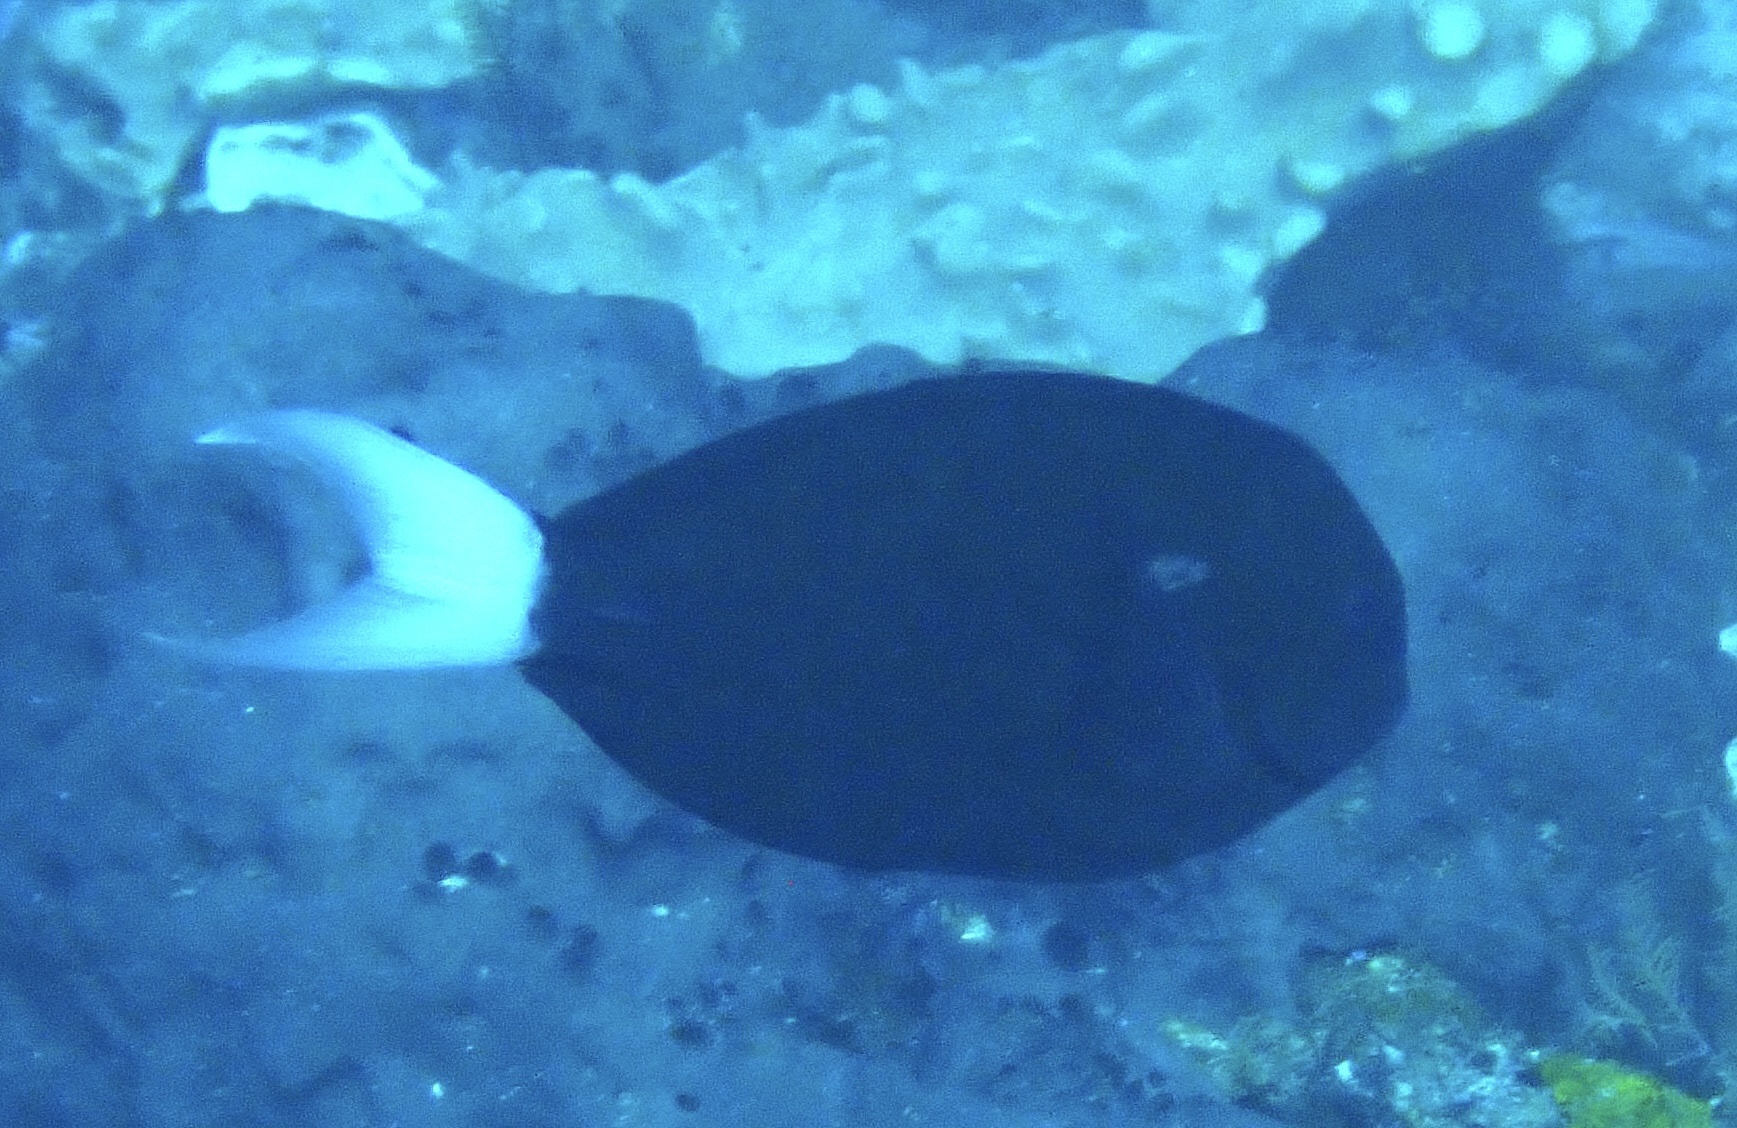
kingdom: Animalia
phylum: Chordata
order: Perciformes
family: Acanthuridae
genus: Acanthurus
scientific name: Acanthurus thompsoni
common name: Chocolate surgeonfish
